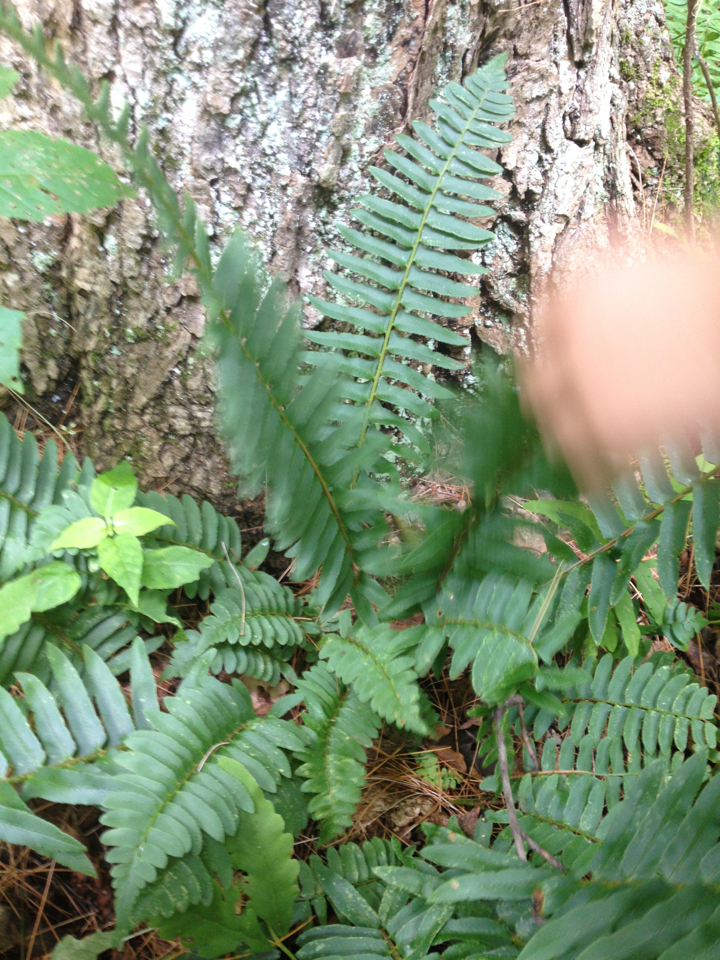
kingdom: Plantae
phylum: Tracheophyta
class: Polypodiopsida
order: Polypodiales
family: Dryopteridaceae
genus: Polystichum
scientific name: Polystichum acrostichoides
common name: Christmas fern
